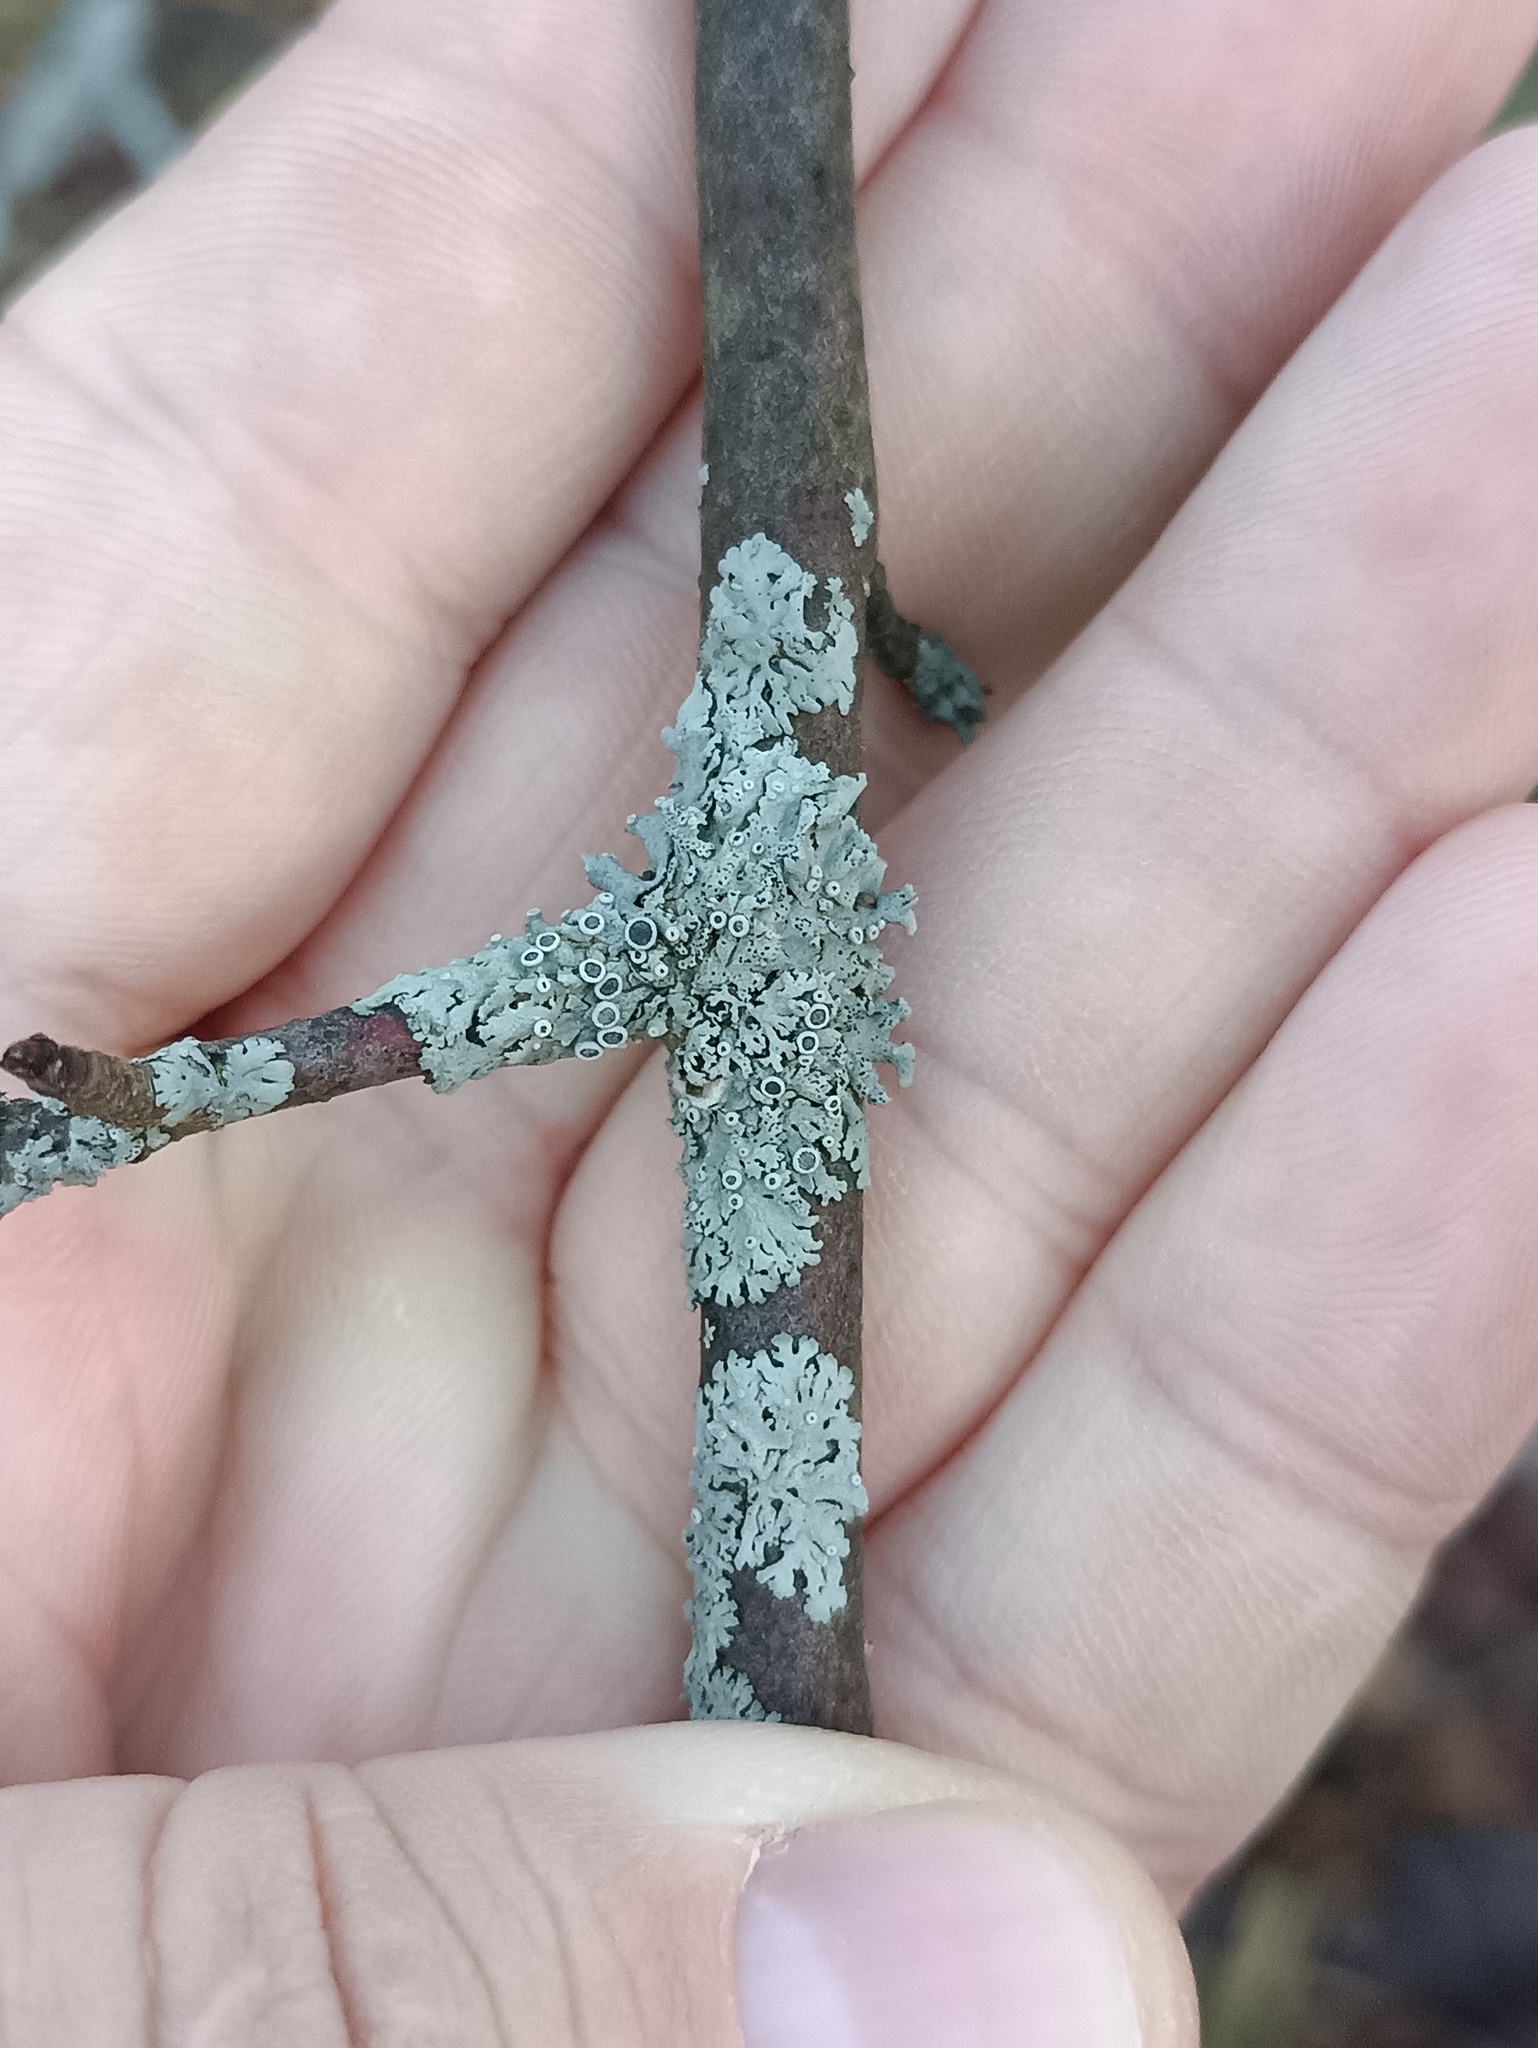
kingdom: Fungi
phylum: Ascomycota
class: Lecanoromycetes
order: Caliciales
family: Physciaceae
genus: Physcia
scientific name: Physcia stellaris
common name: Star rosette lichen
